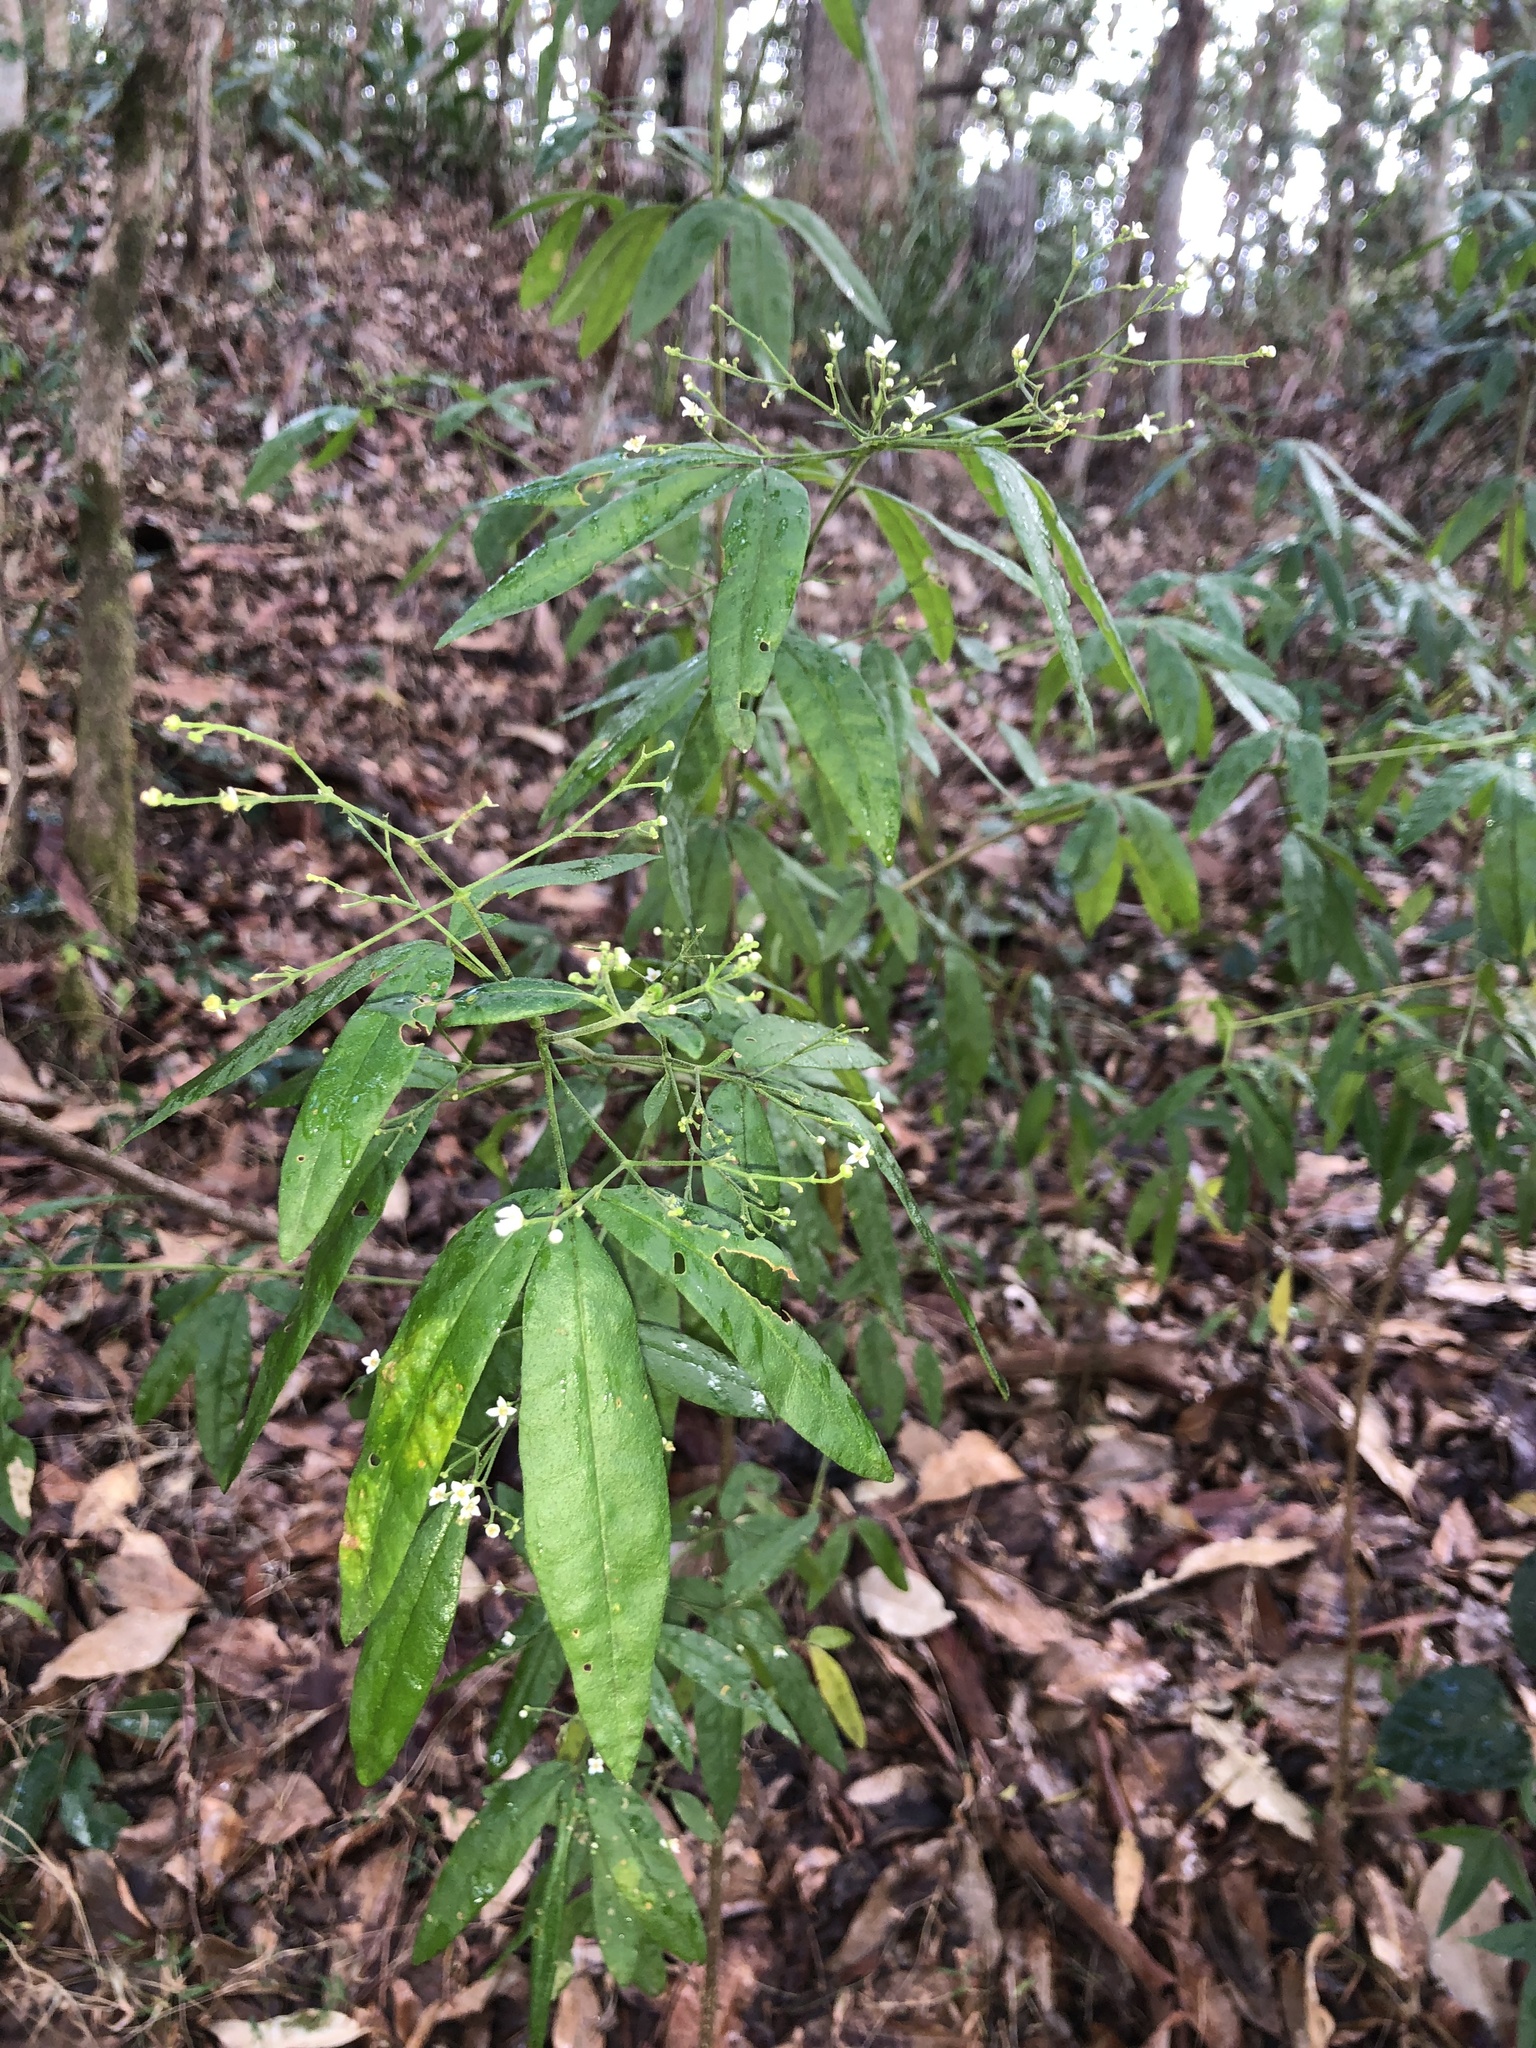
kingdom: Plantae
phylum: Tracheophyta
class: Magnoliopsida
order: Sapindales
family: Rutaceae
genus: Zieria
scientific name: Zieria smithii
